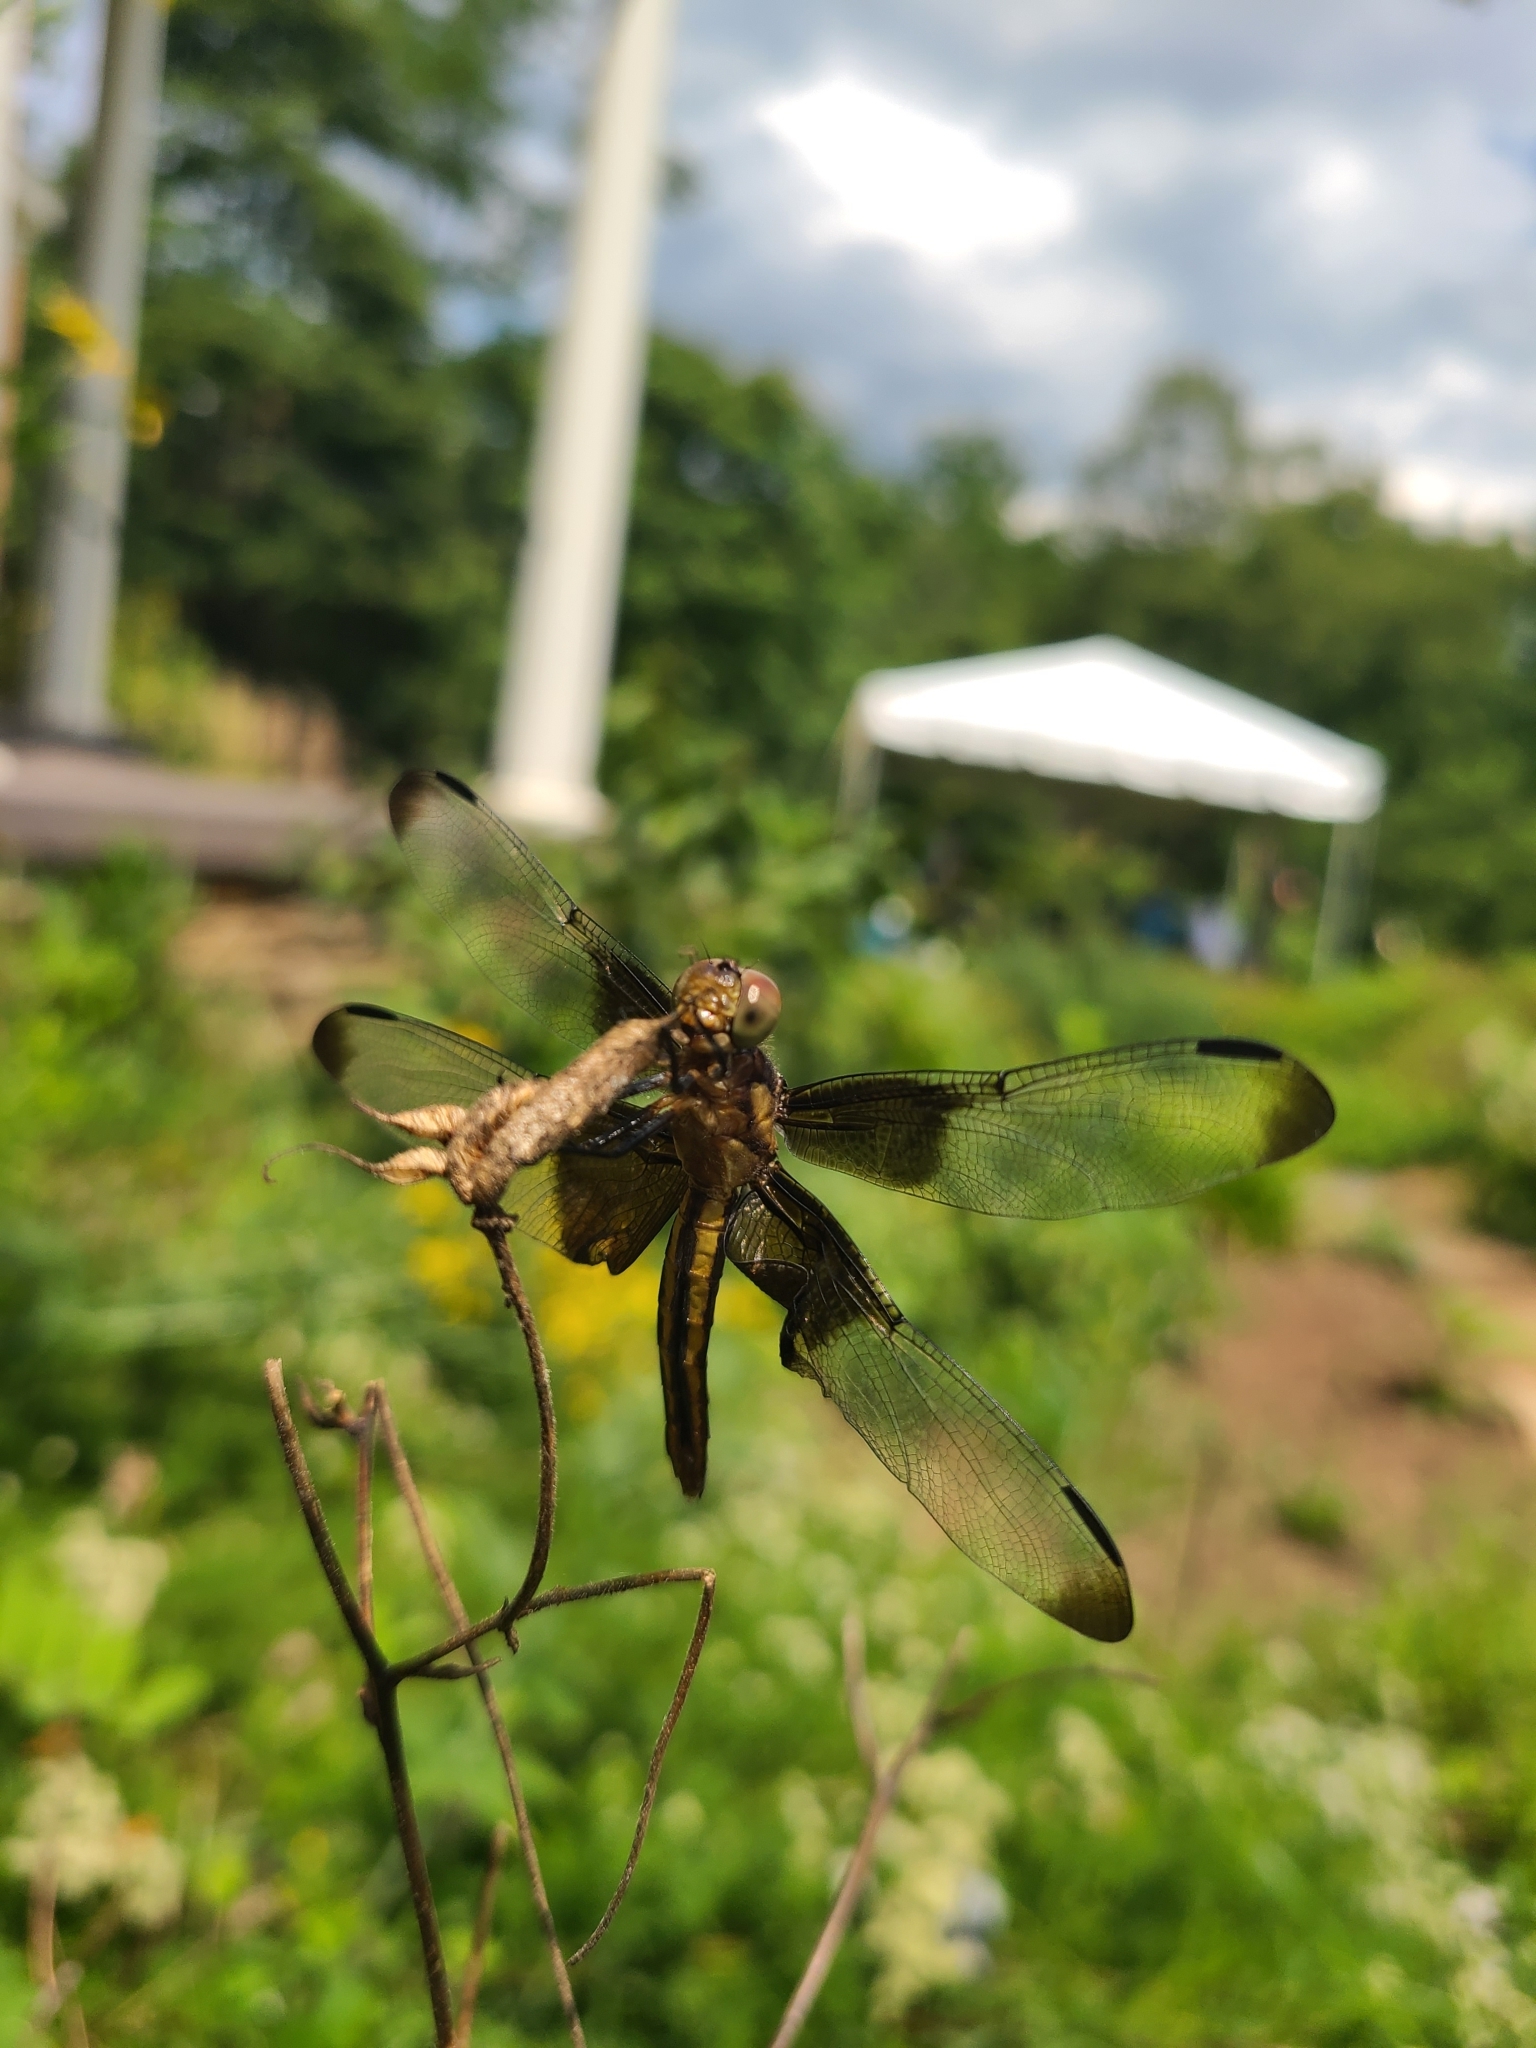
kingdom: Animalia
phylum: Arthropoda
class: Insecta
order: Odonata
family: Libellulidae
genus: Libellula
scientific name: Libellula luctuosa
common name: Widow skimmer
